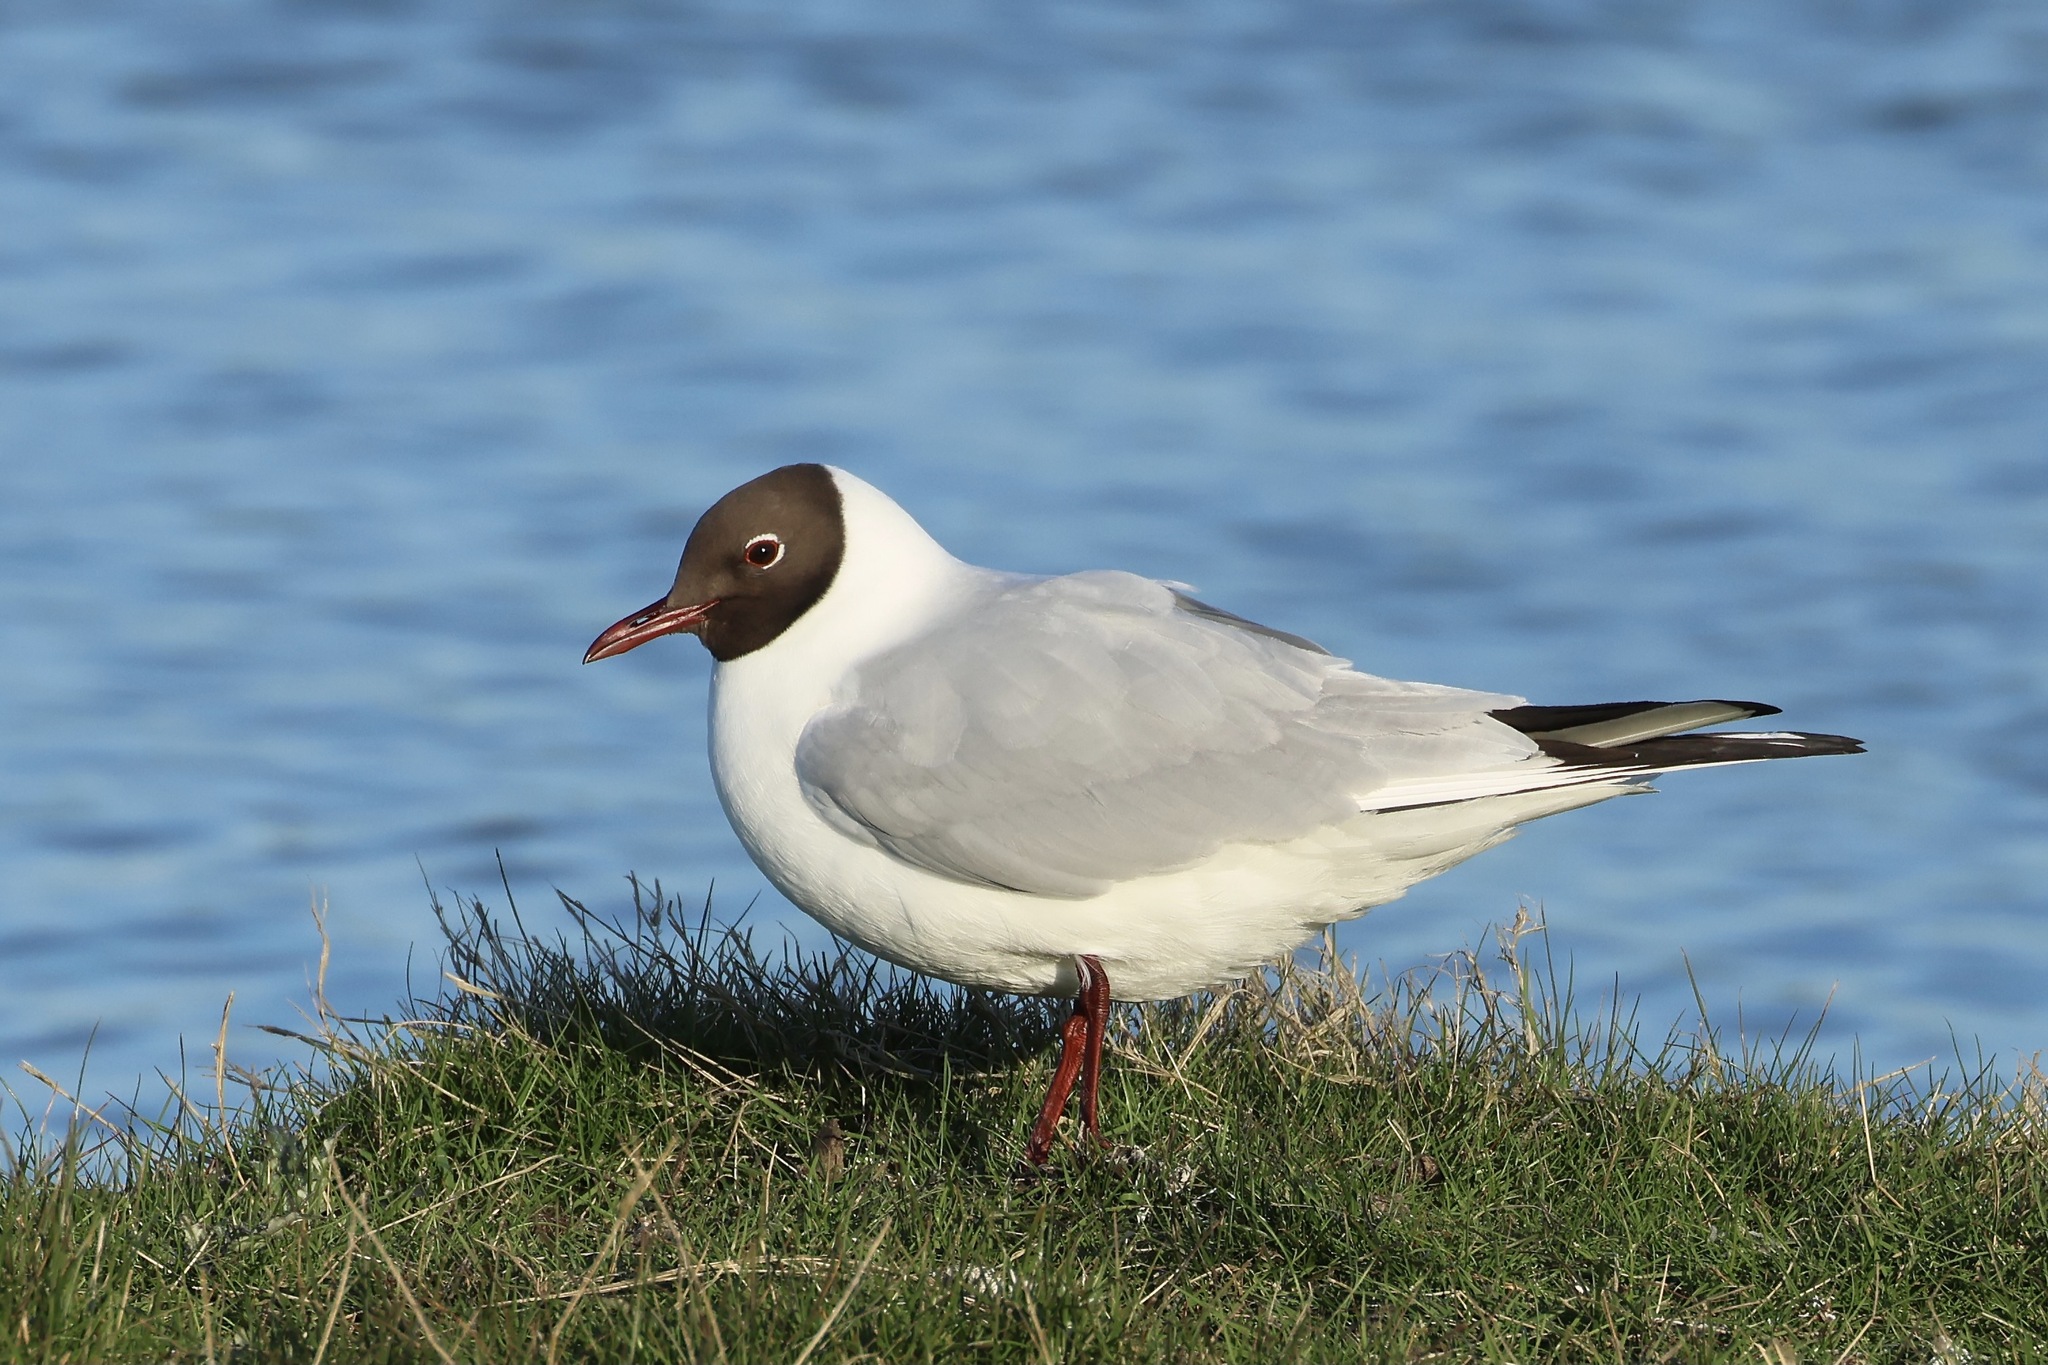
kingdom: Animalia
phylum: Chordata
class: Aves
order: Charadriiformes
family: Laridae
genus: Chroicocephalus
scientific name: Chroicocephalus ridibundus
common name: Black-headed gull
